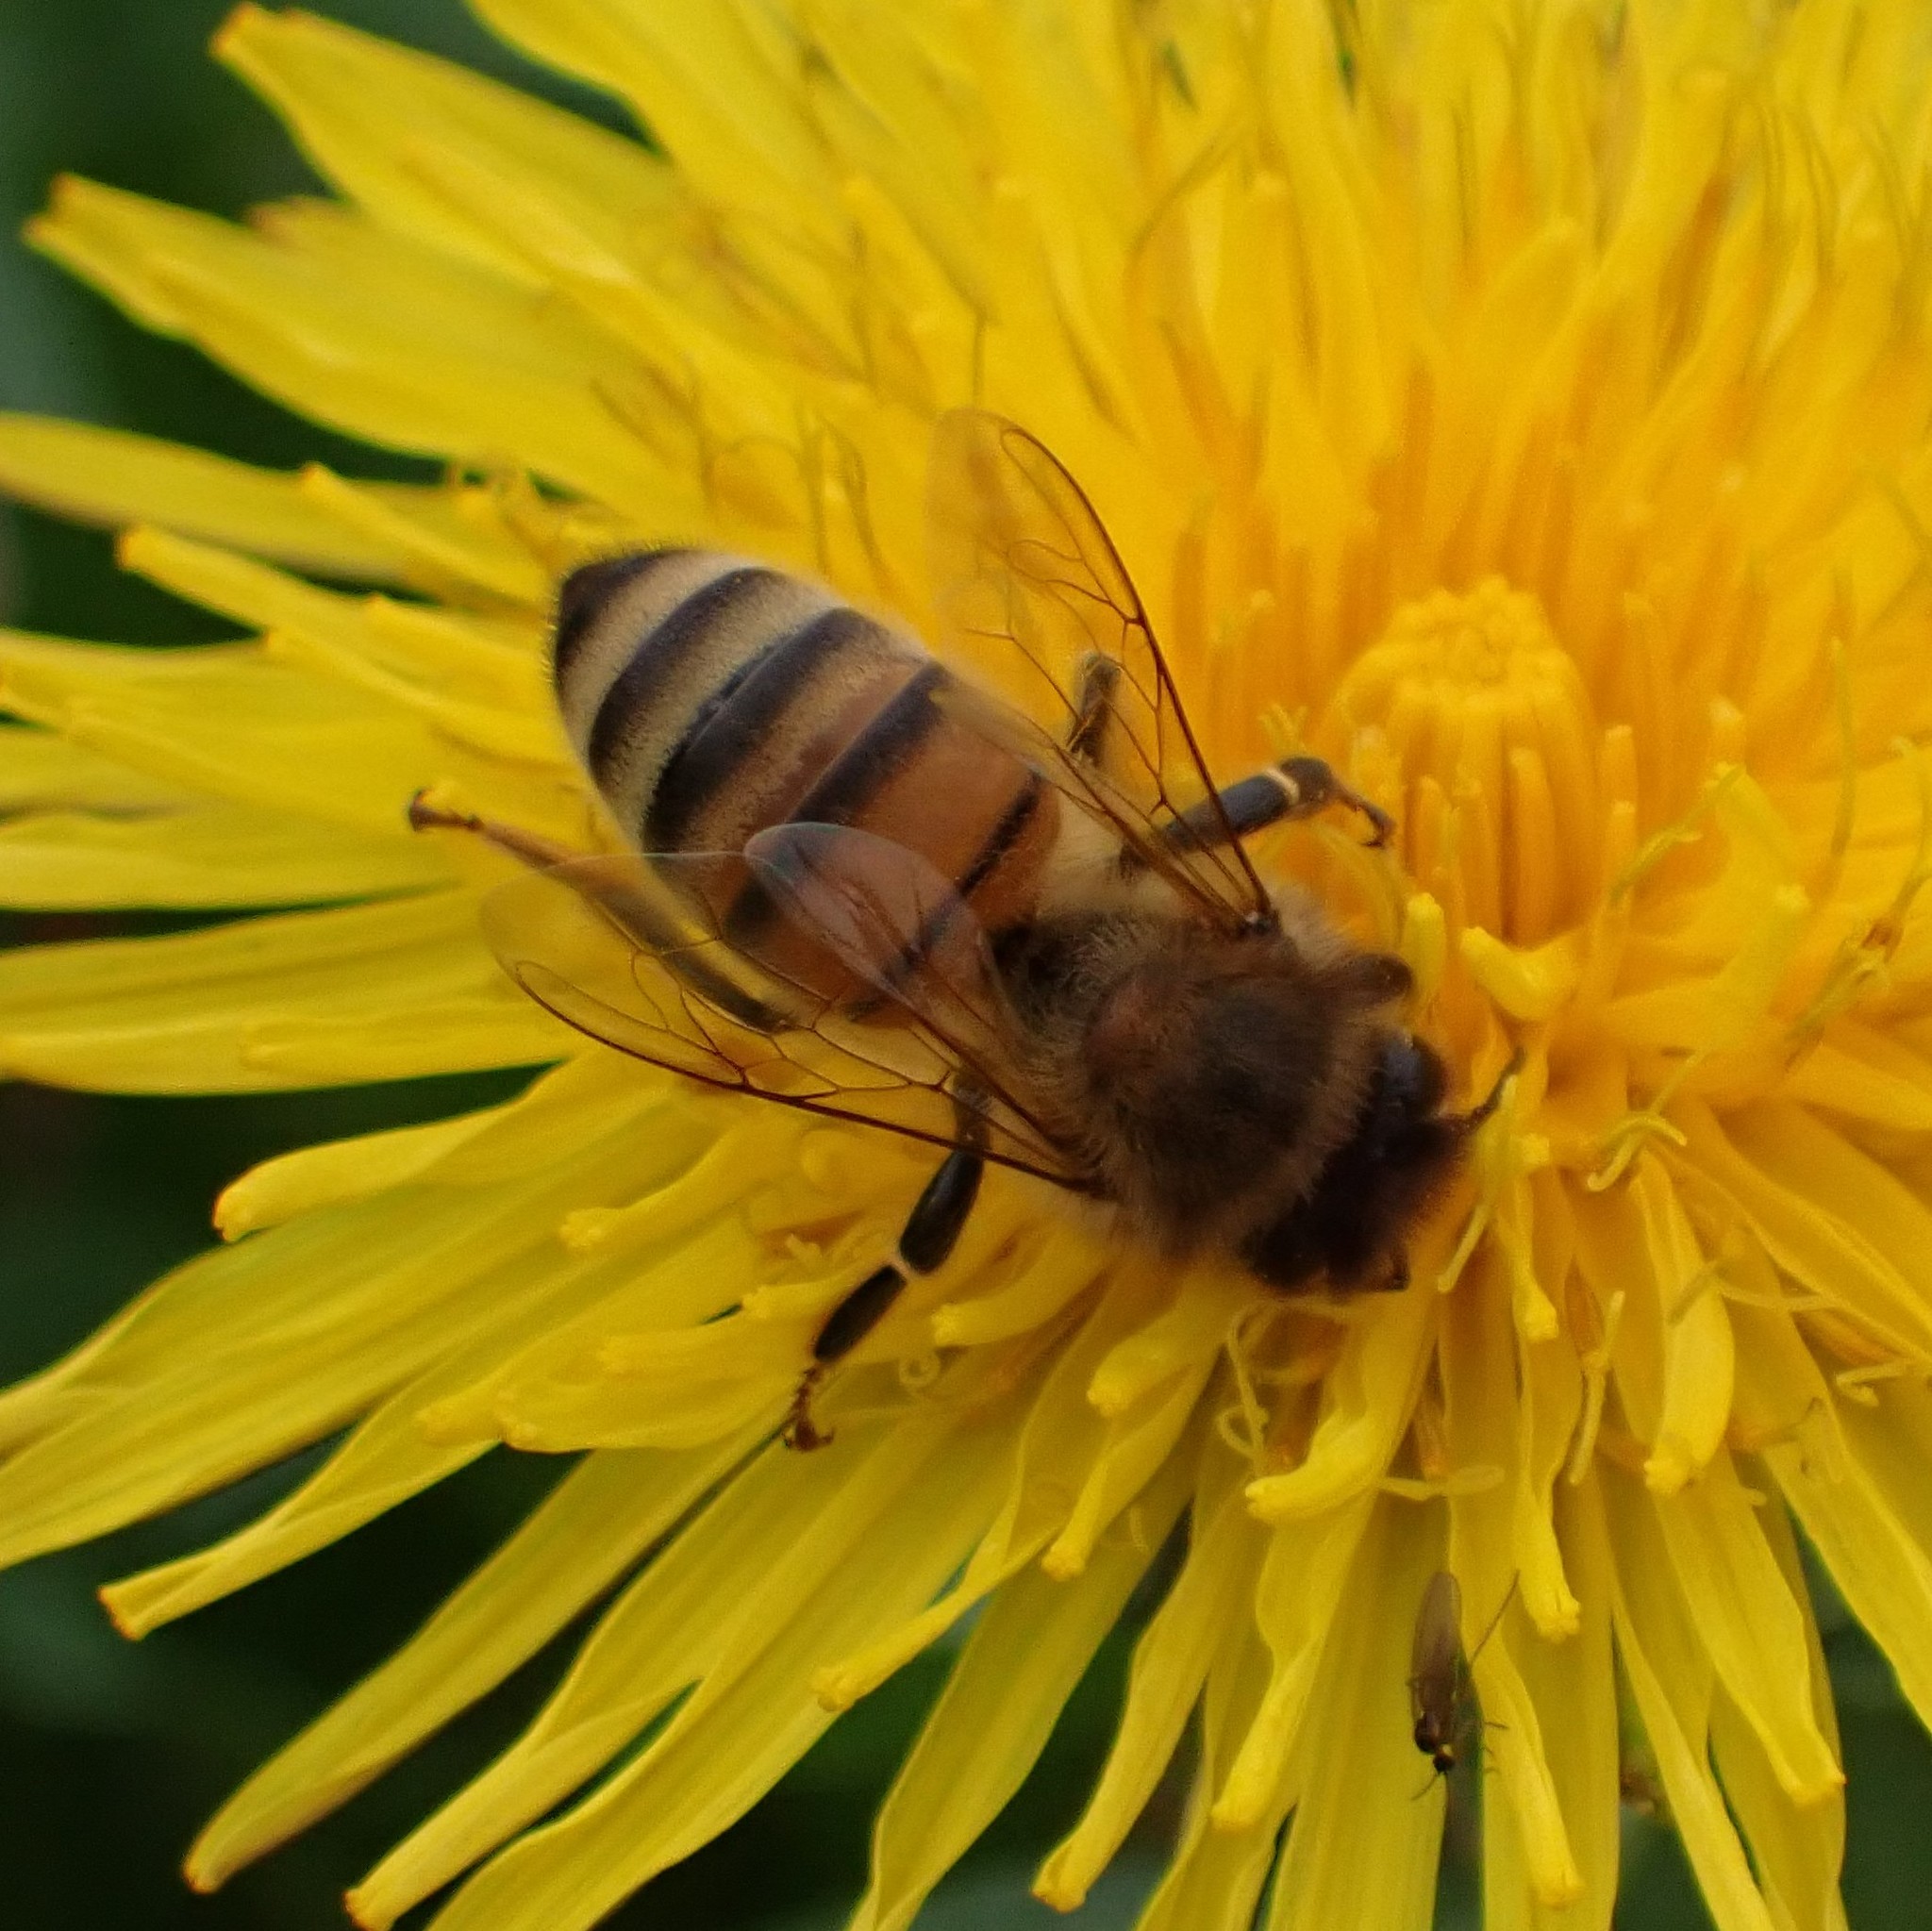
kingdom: Animalia
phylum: Arthropoda
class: Insecta
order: Hymenoptera
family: Apidae
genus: Apis
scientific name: Apis mellifera
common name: Honey bee
